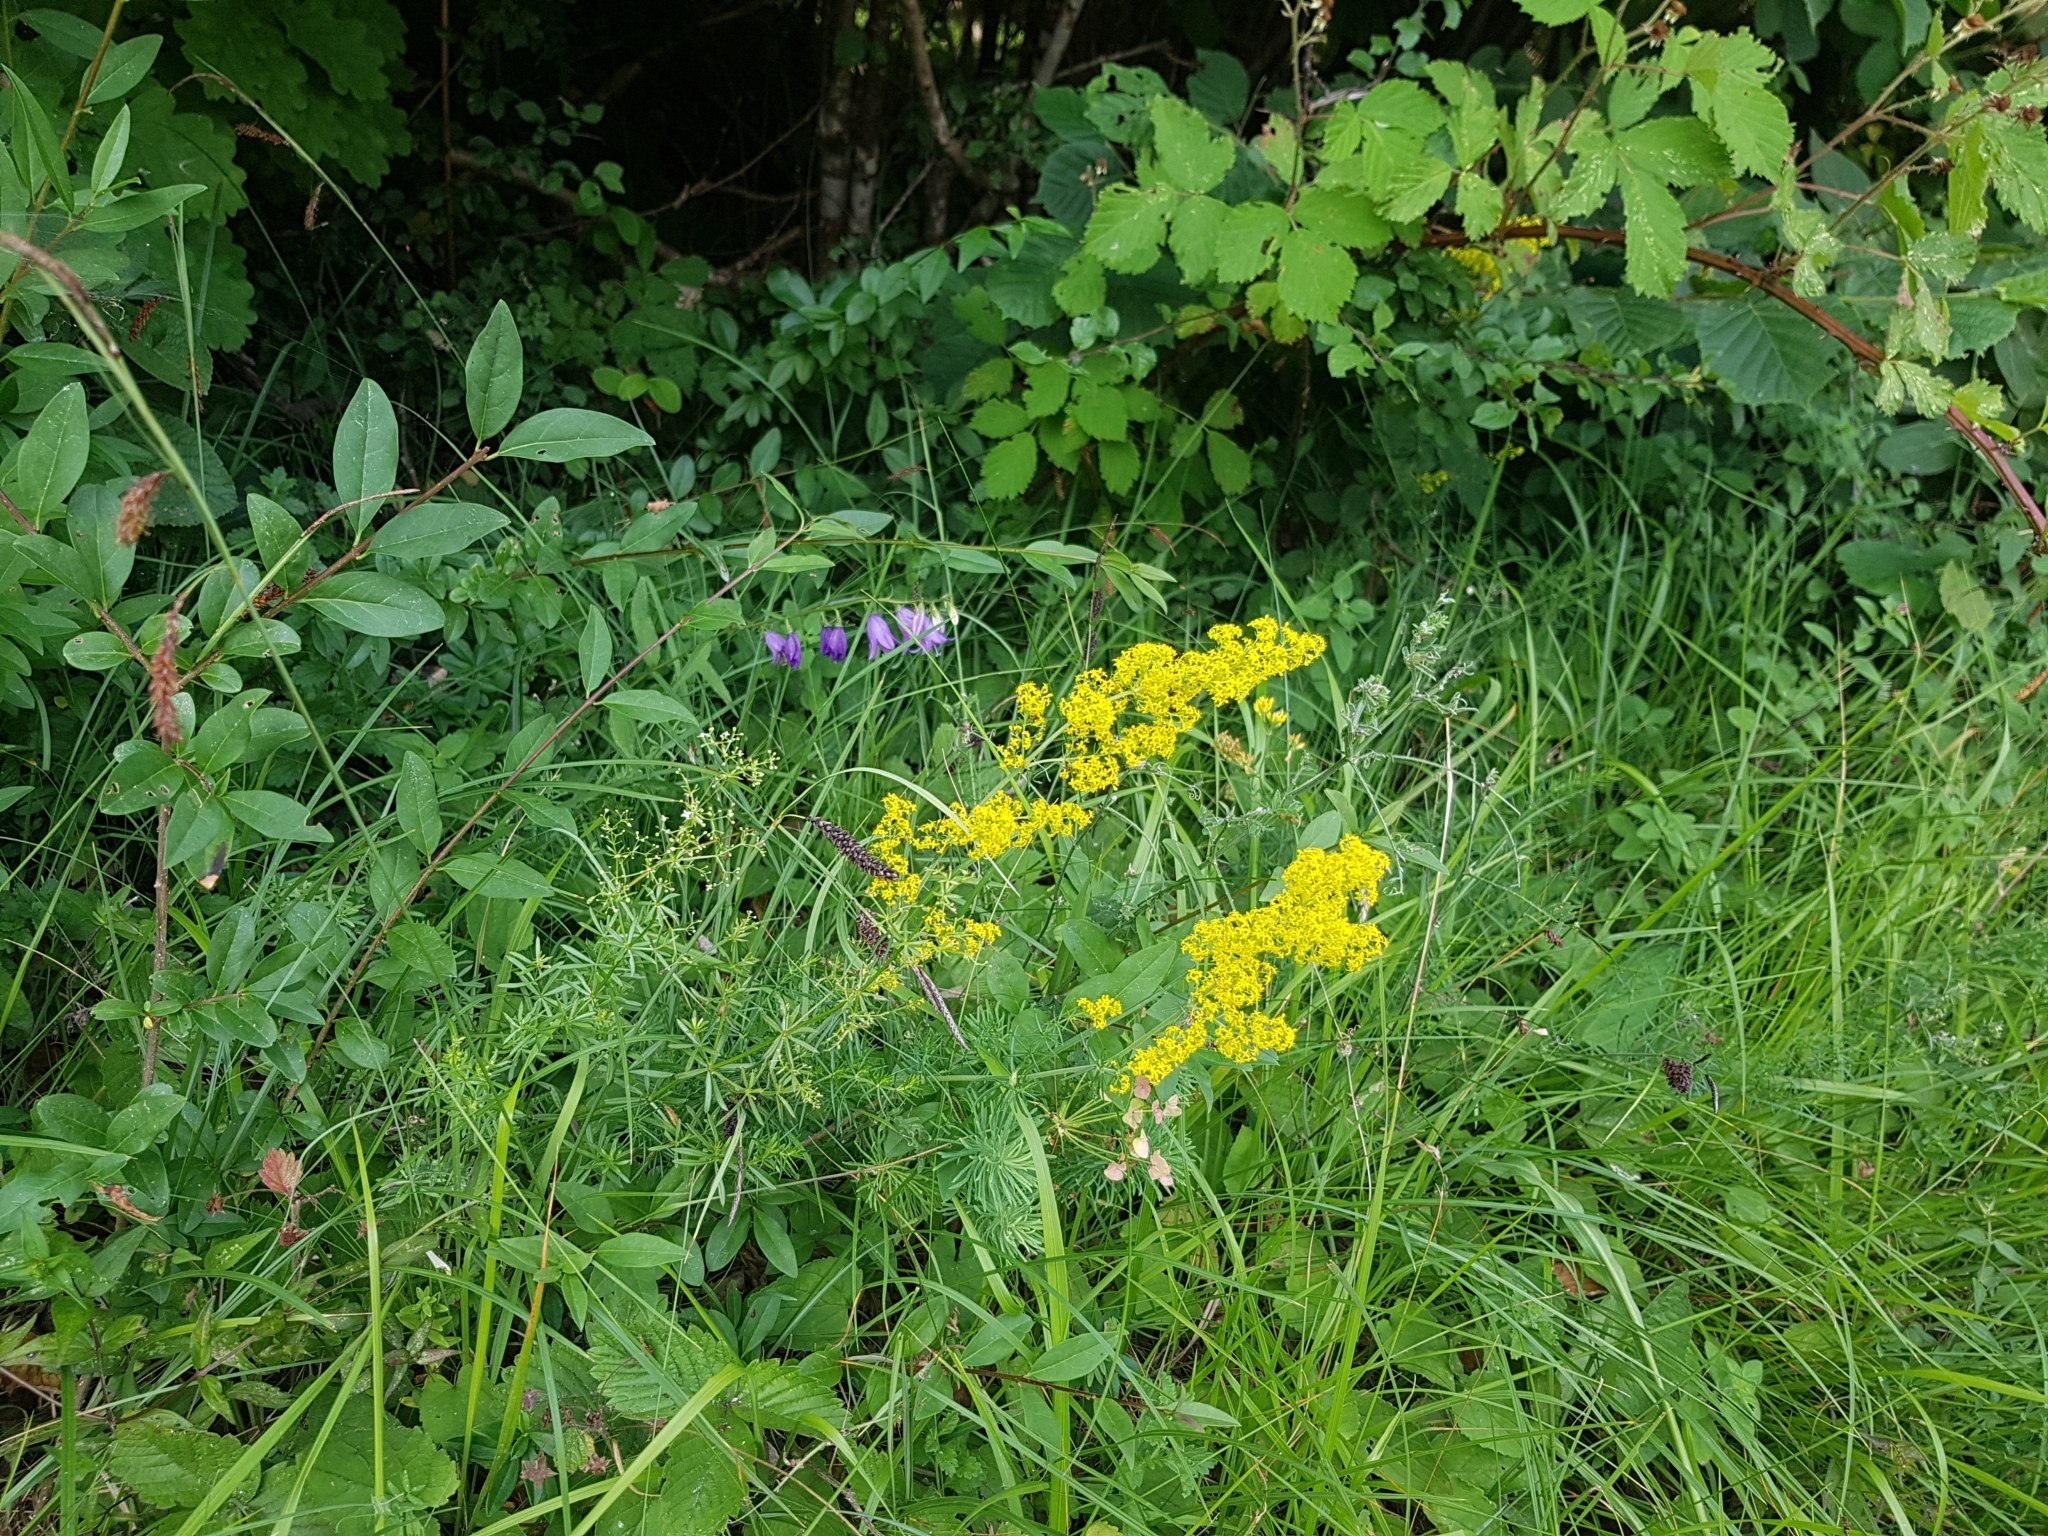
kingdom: Plantae
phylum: Tracheophyta
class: Magnoliopsida
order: Gentianales
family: Rubiaceae
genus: Galium
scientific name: Galium verum
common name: Lady's bedstraw
